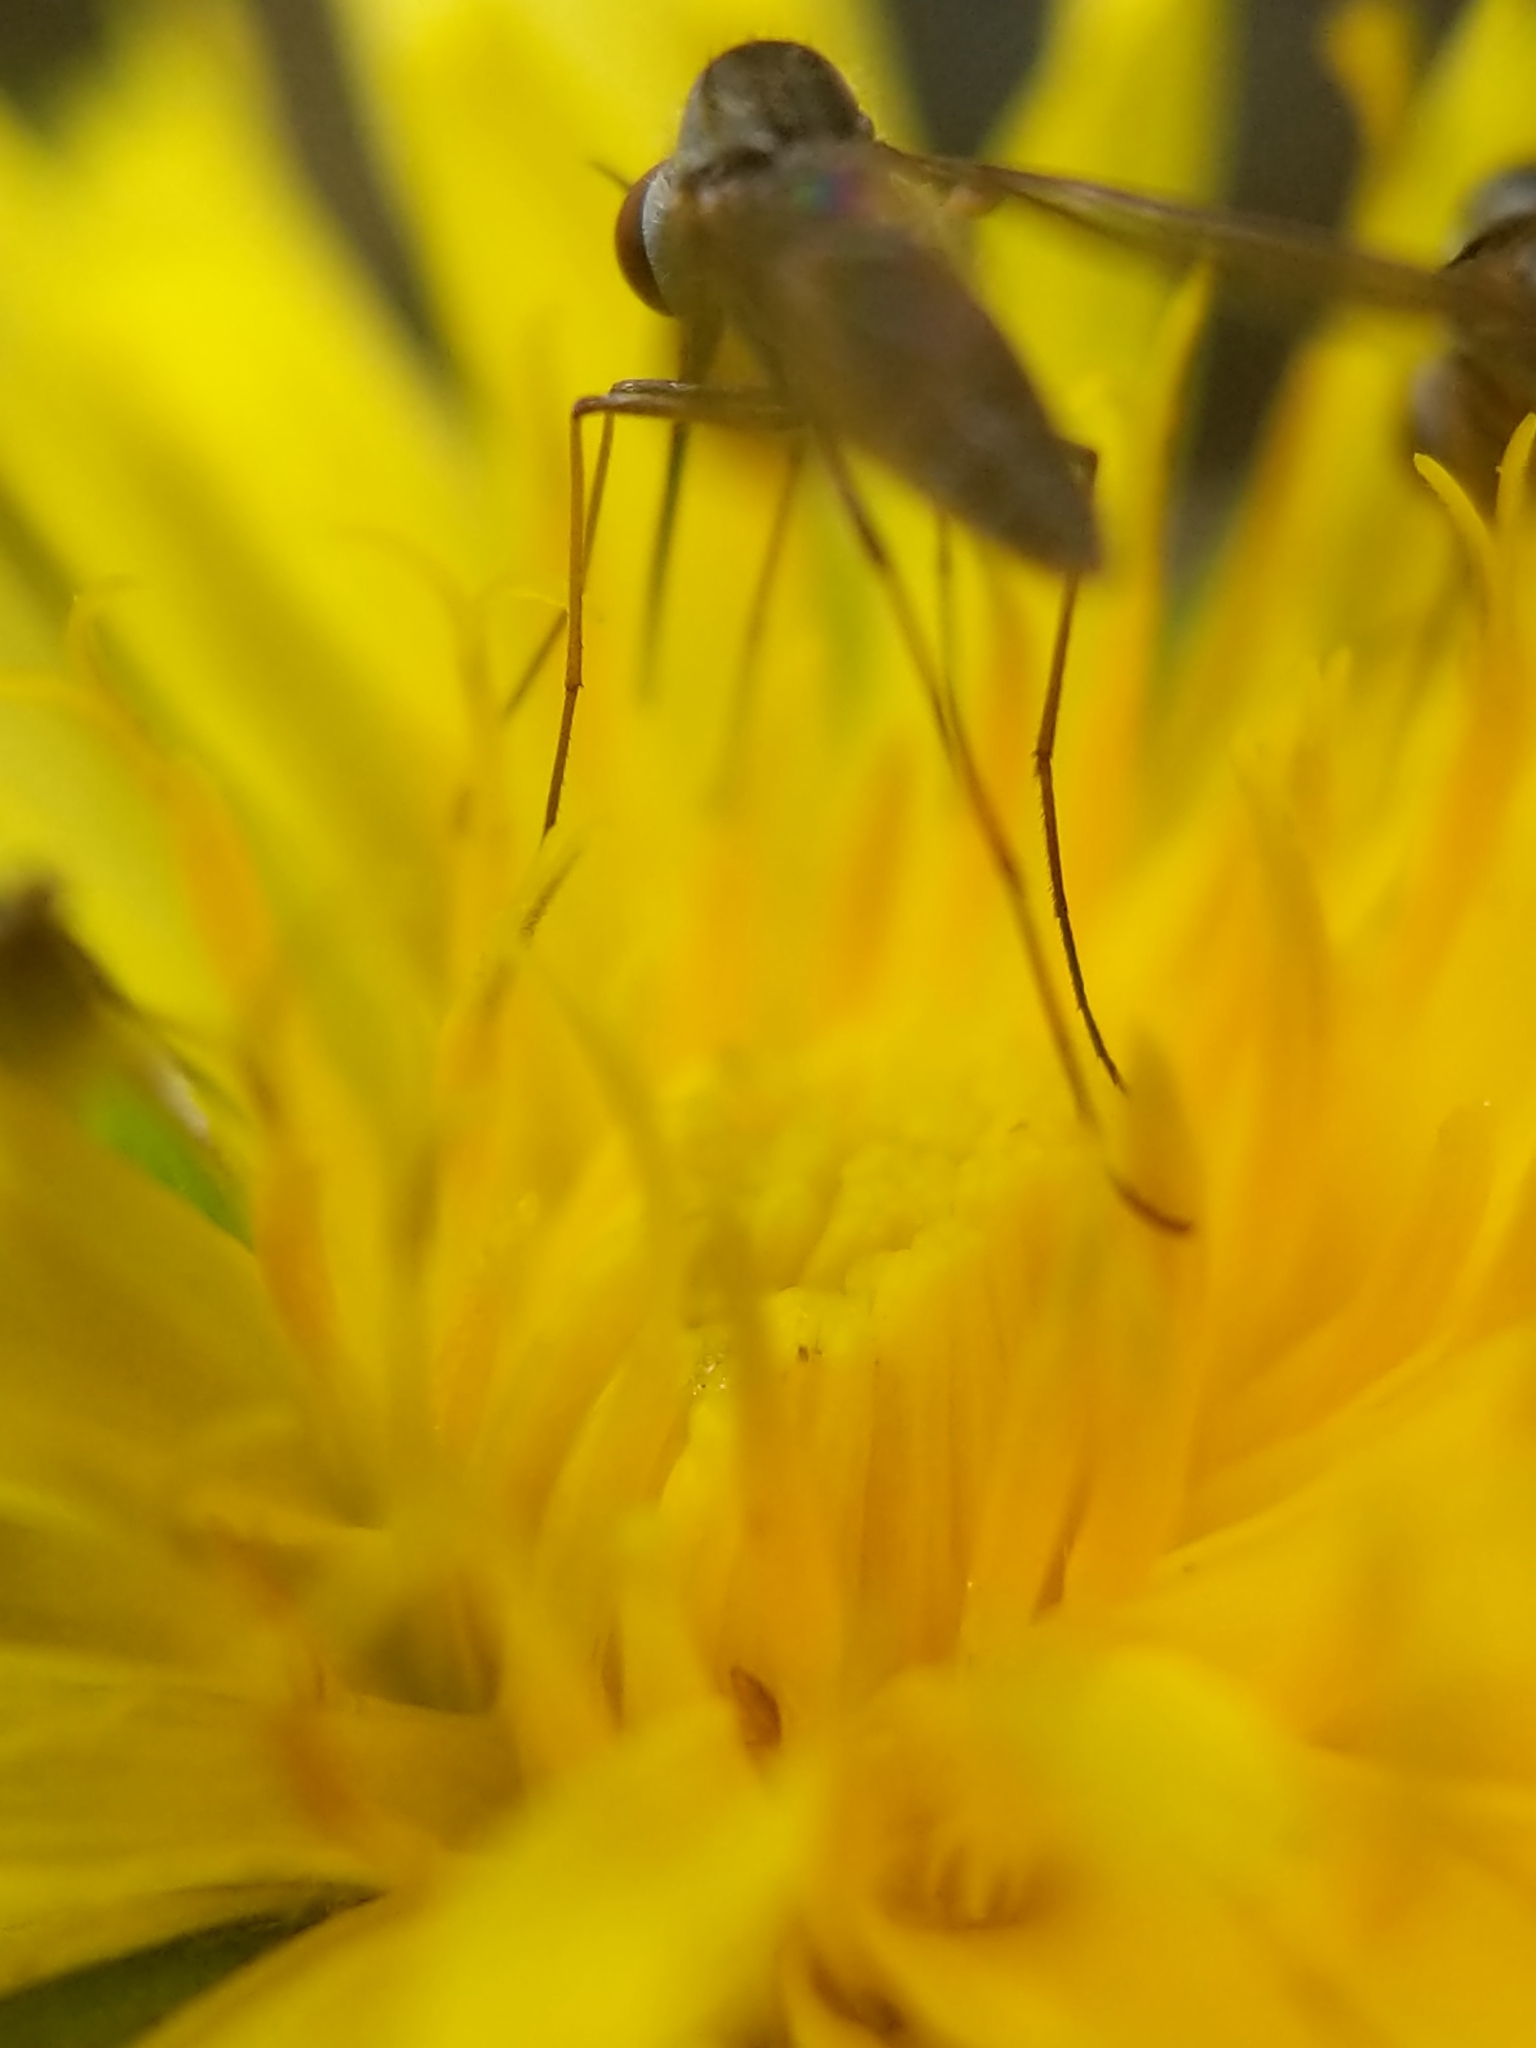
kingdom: Animalia
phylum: Arthropoda
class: Insecta
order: Diptera
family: Bombyliidae
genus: Geron
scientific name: Geron calvus
